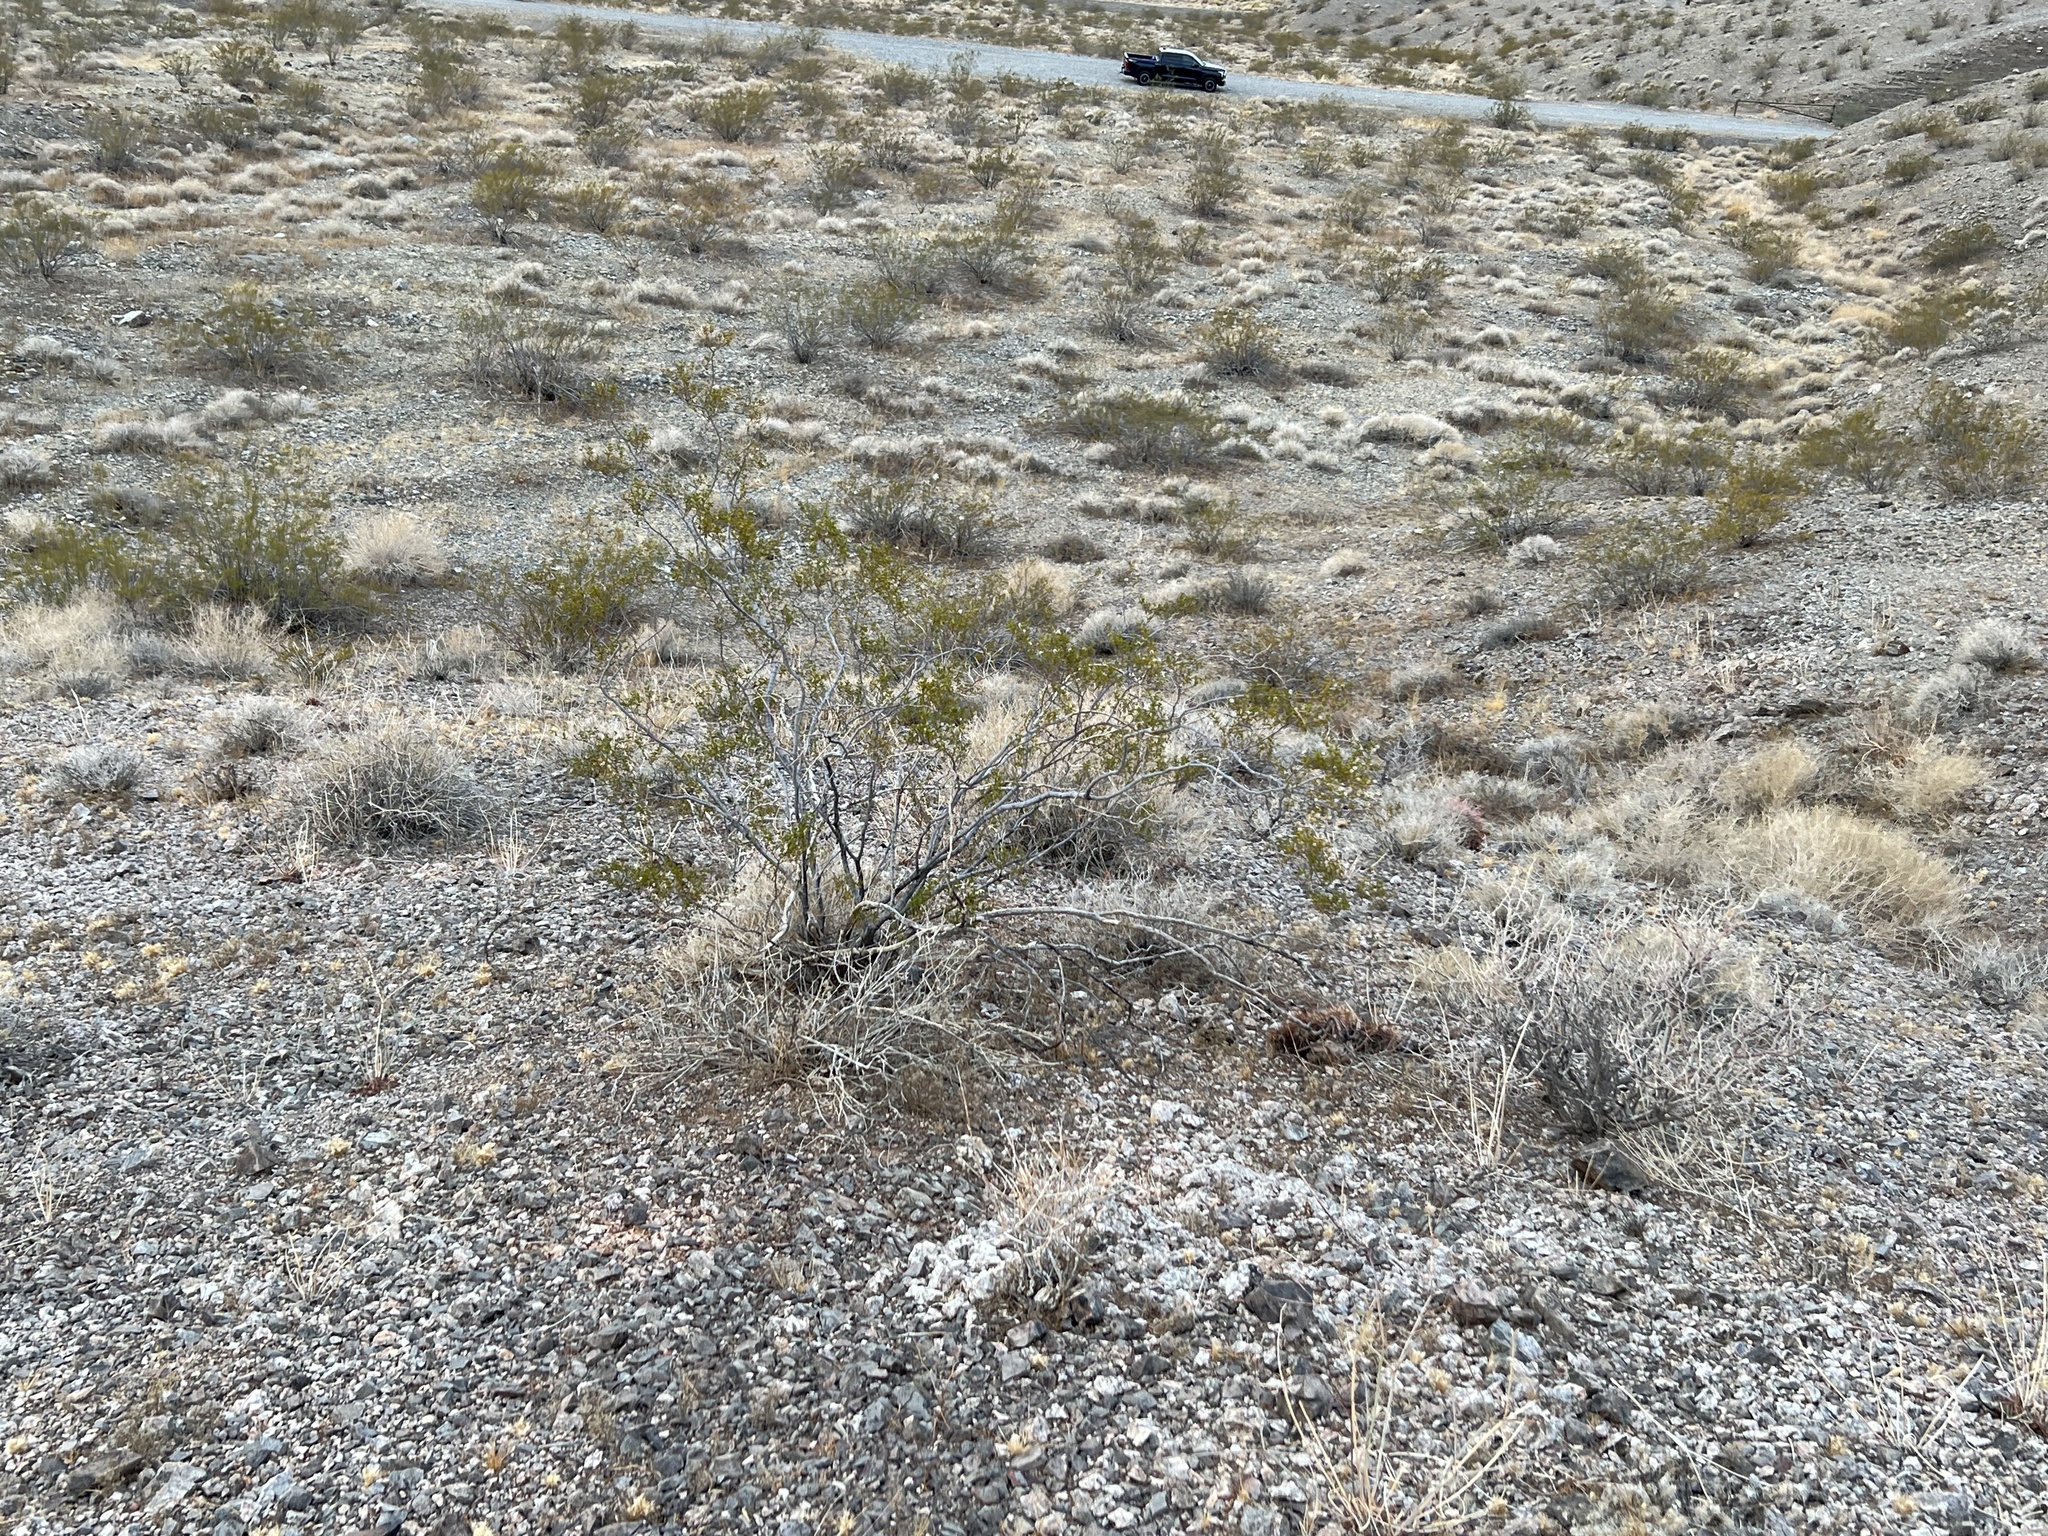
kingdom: Plantae
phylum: Tracheophyta
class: Magnoliopsida
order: Zygophyllales
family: Zygophyllaceae
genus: Larrea
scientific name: Larrea tridentata
